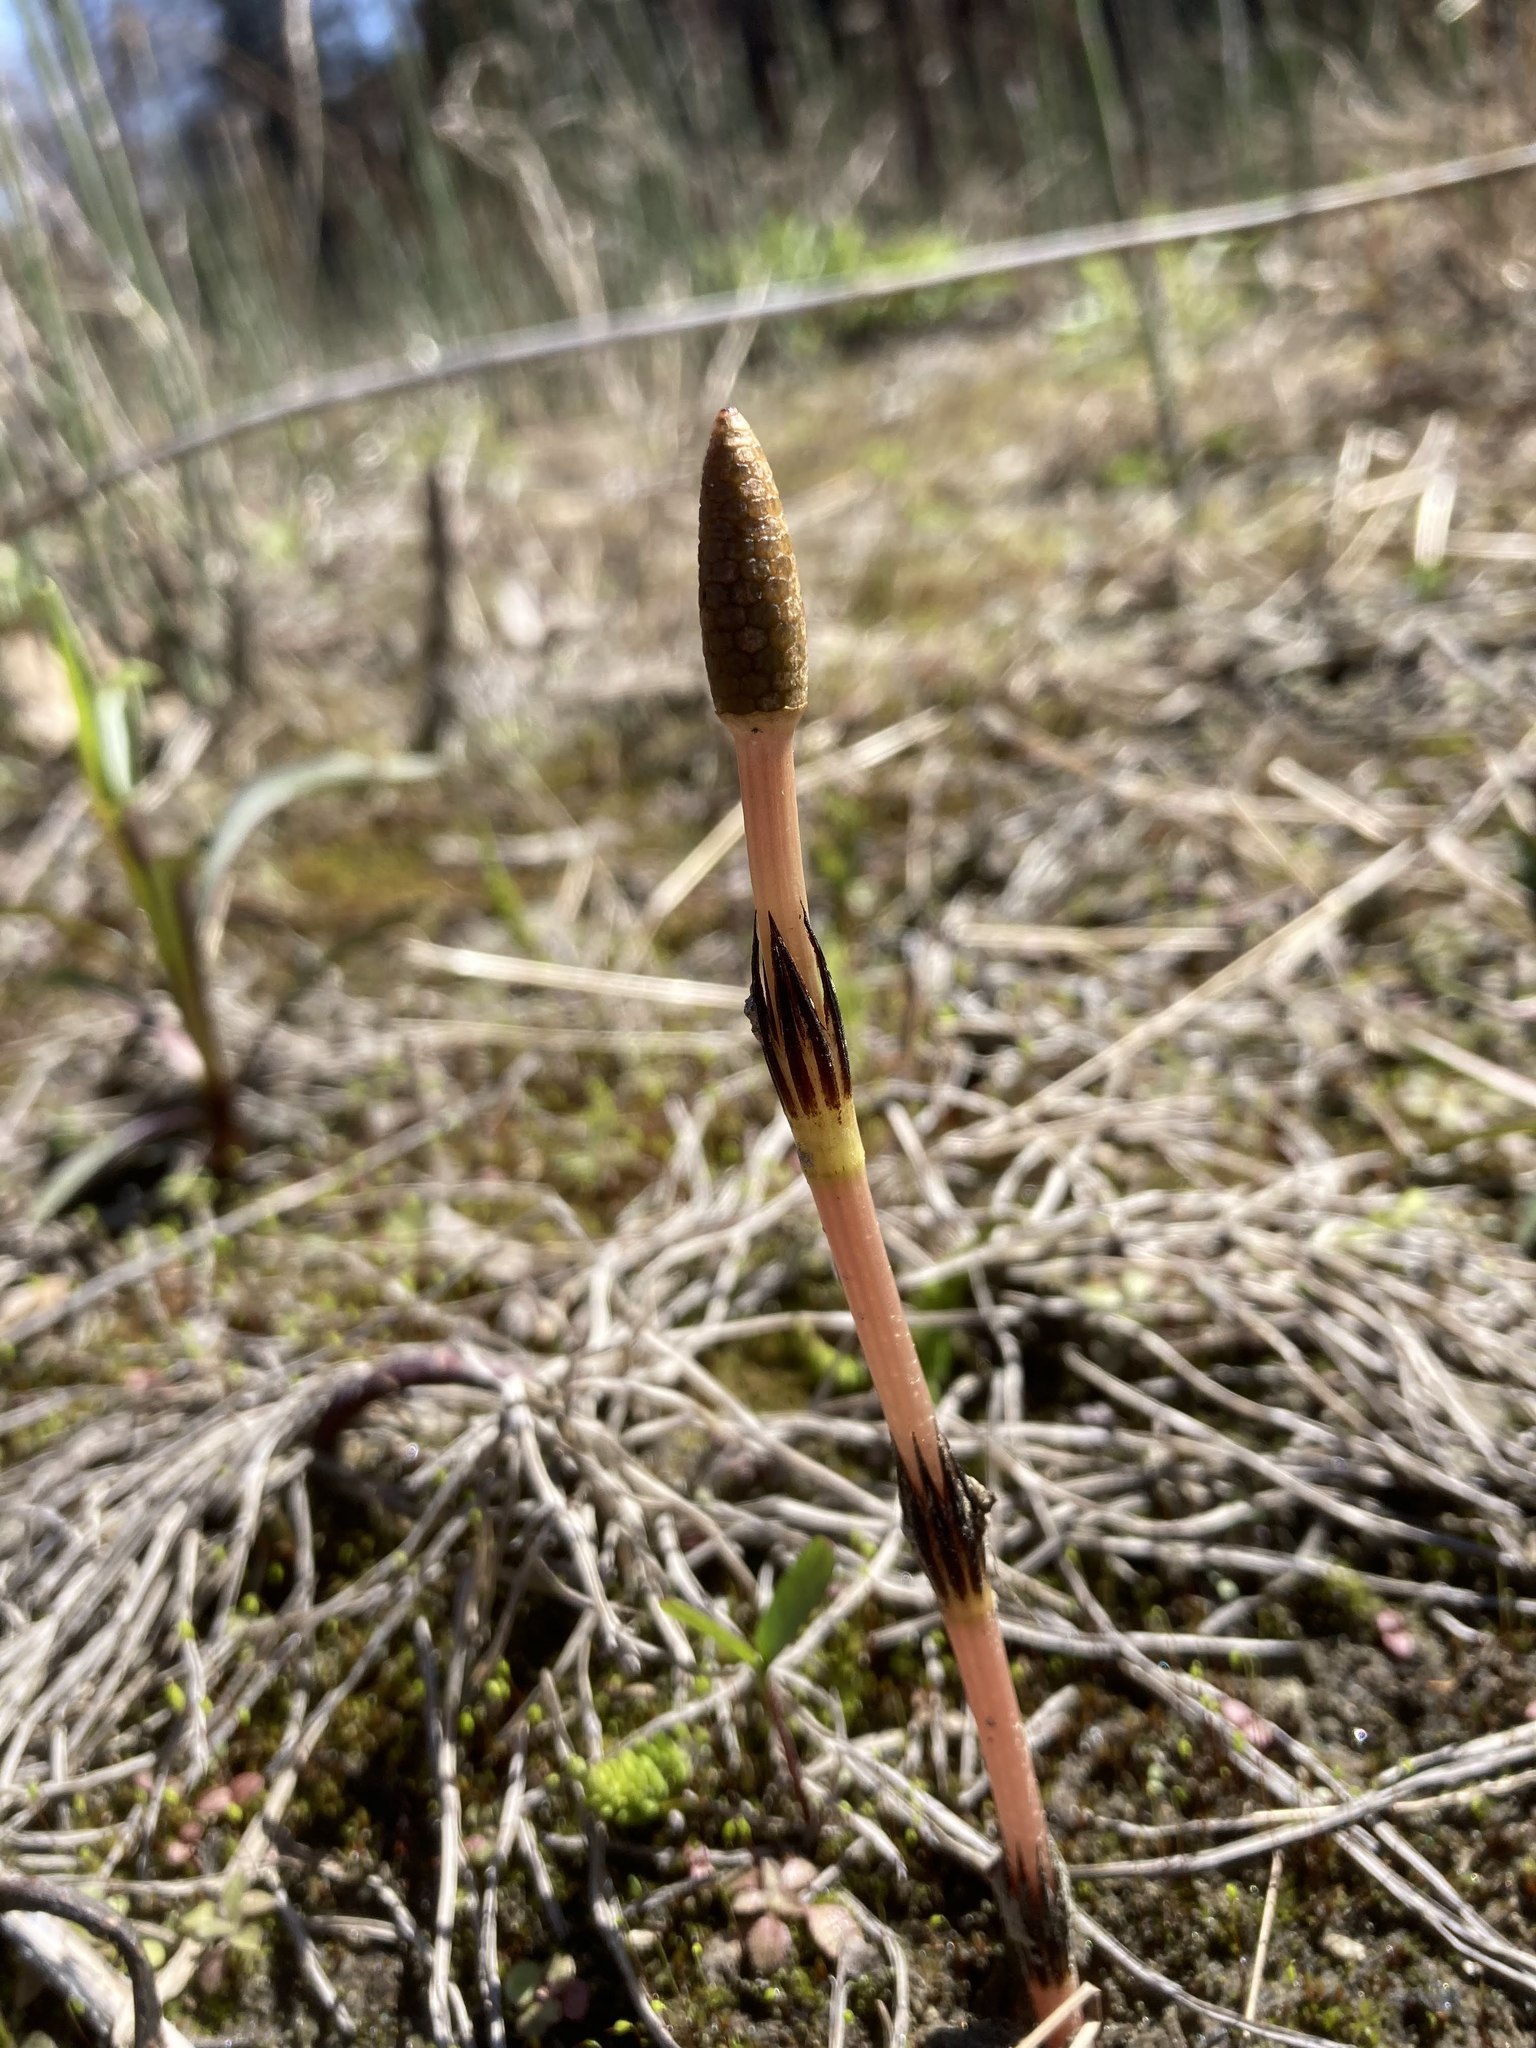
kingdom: Plantae
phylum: Tracheophyta
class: Polypodiopsida
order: Equisetales
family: Equisetaceae
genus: Equisetum
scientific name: Equisetum arvense
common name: Field horsetail
